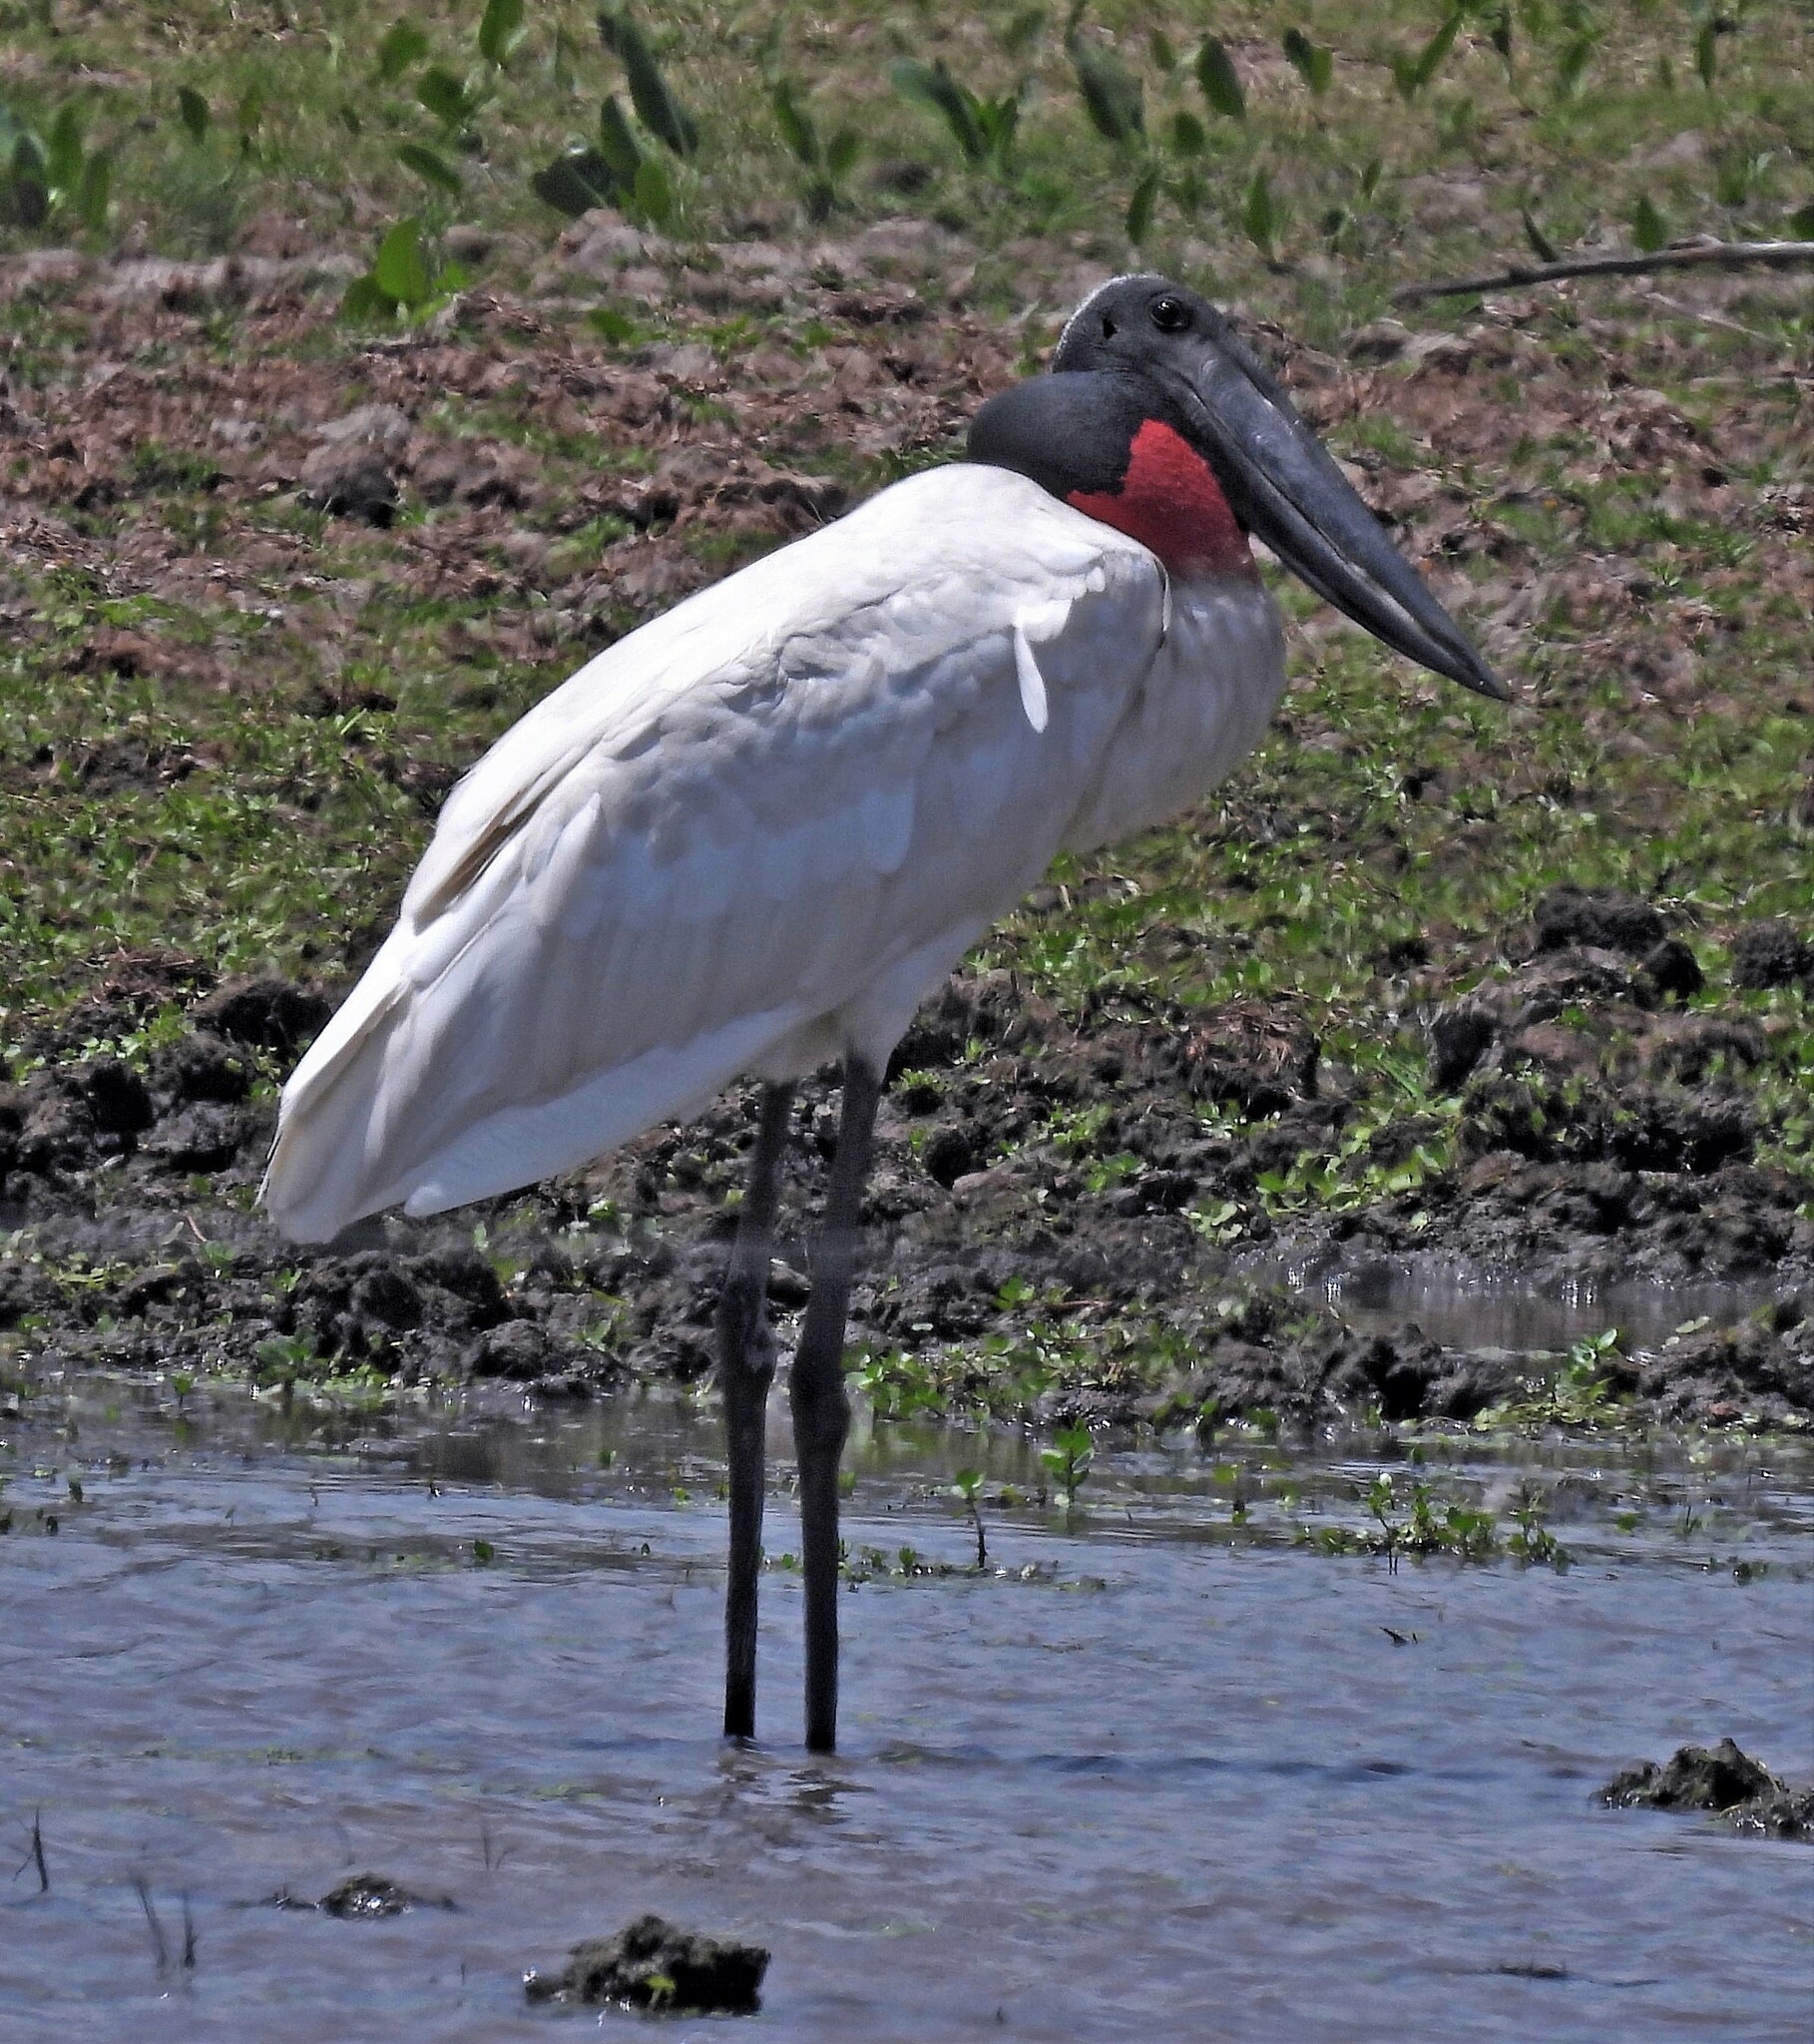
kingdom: Animalia
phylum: Chordata
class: Aves
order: Ciconiiformes
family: Ciconiidae
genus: Jabiru
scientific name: Jabiru mycteria
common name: Jabiru
